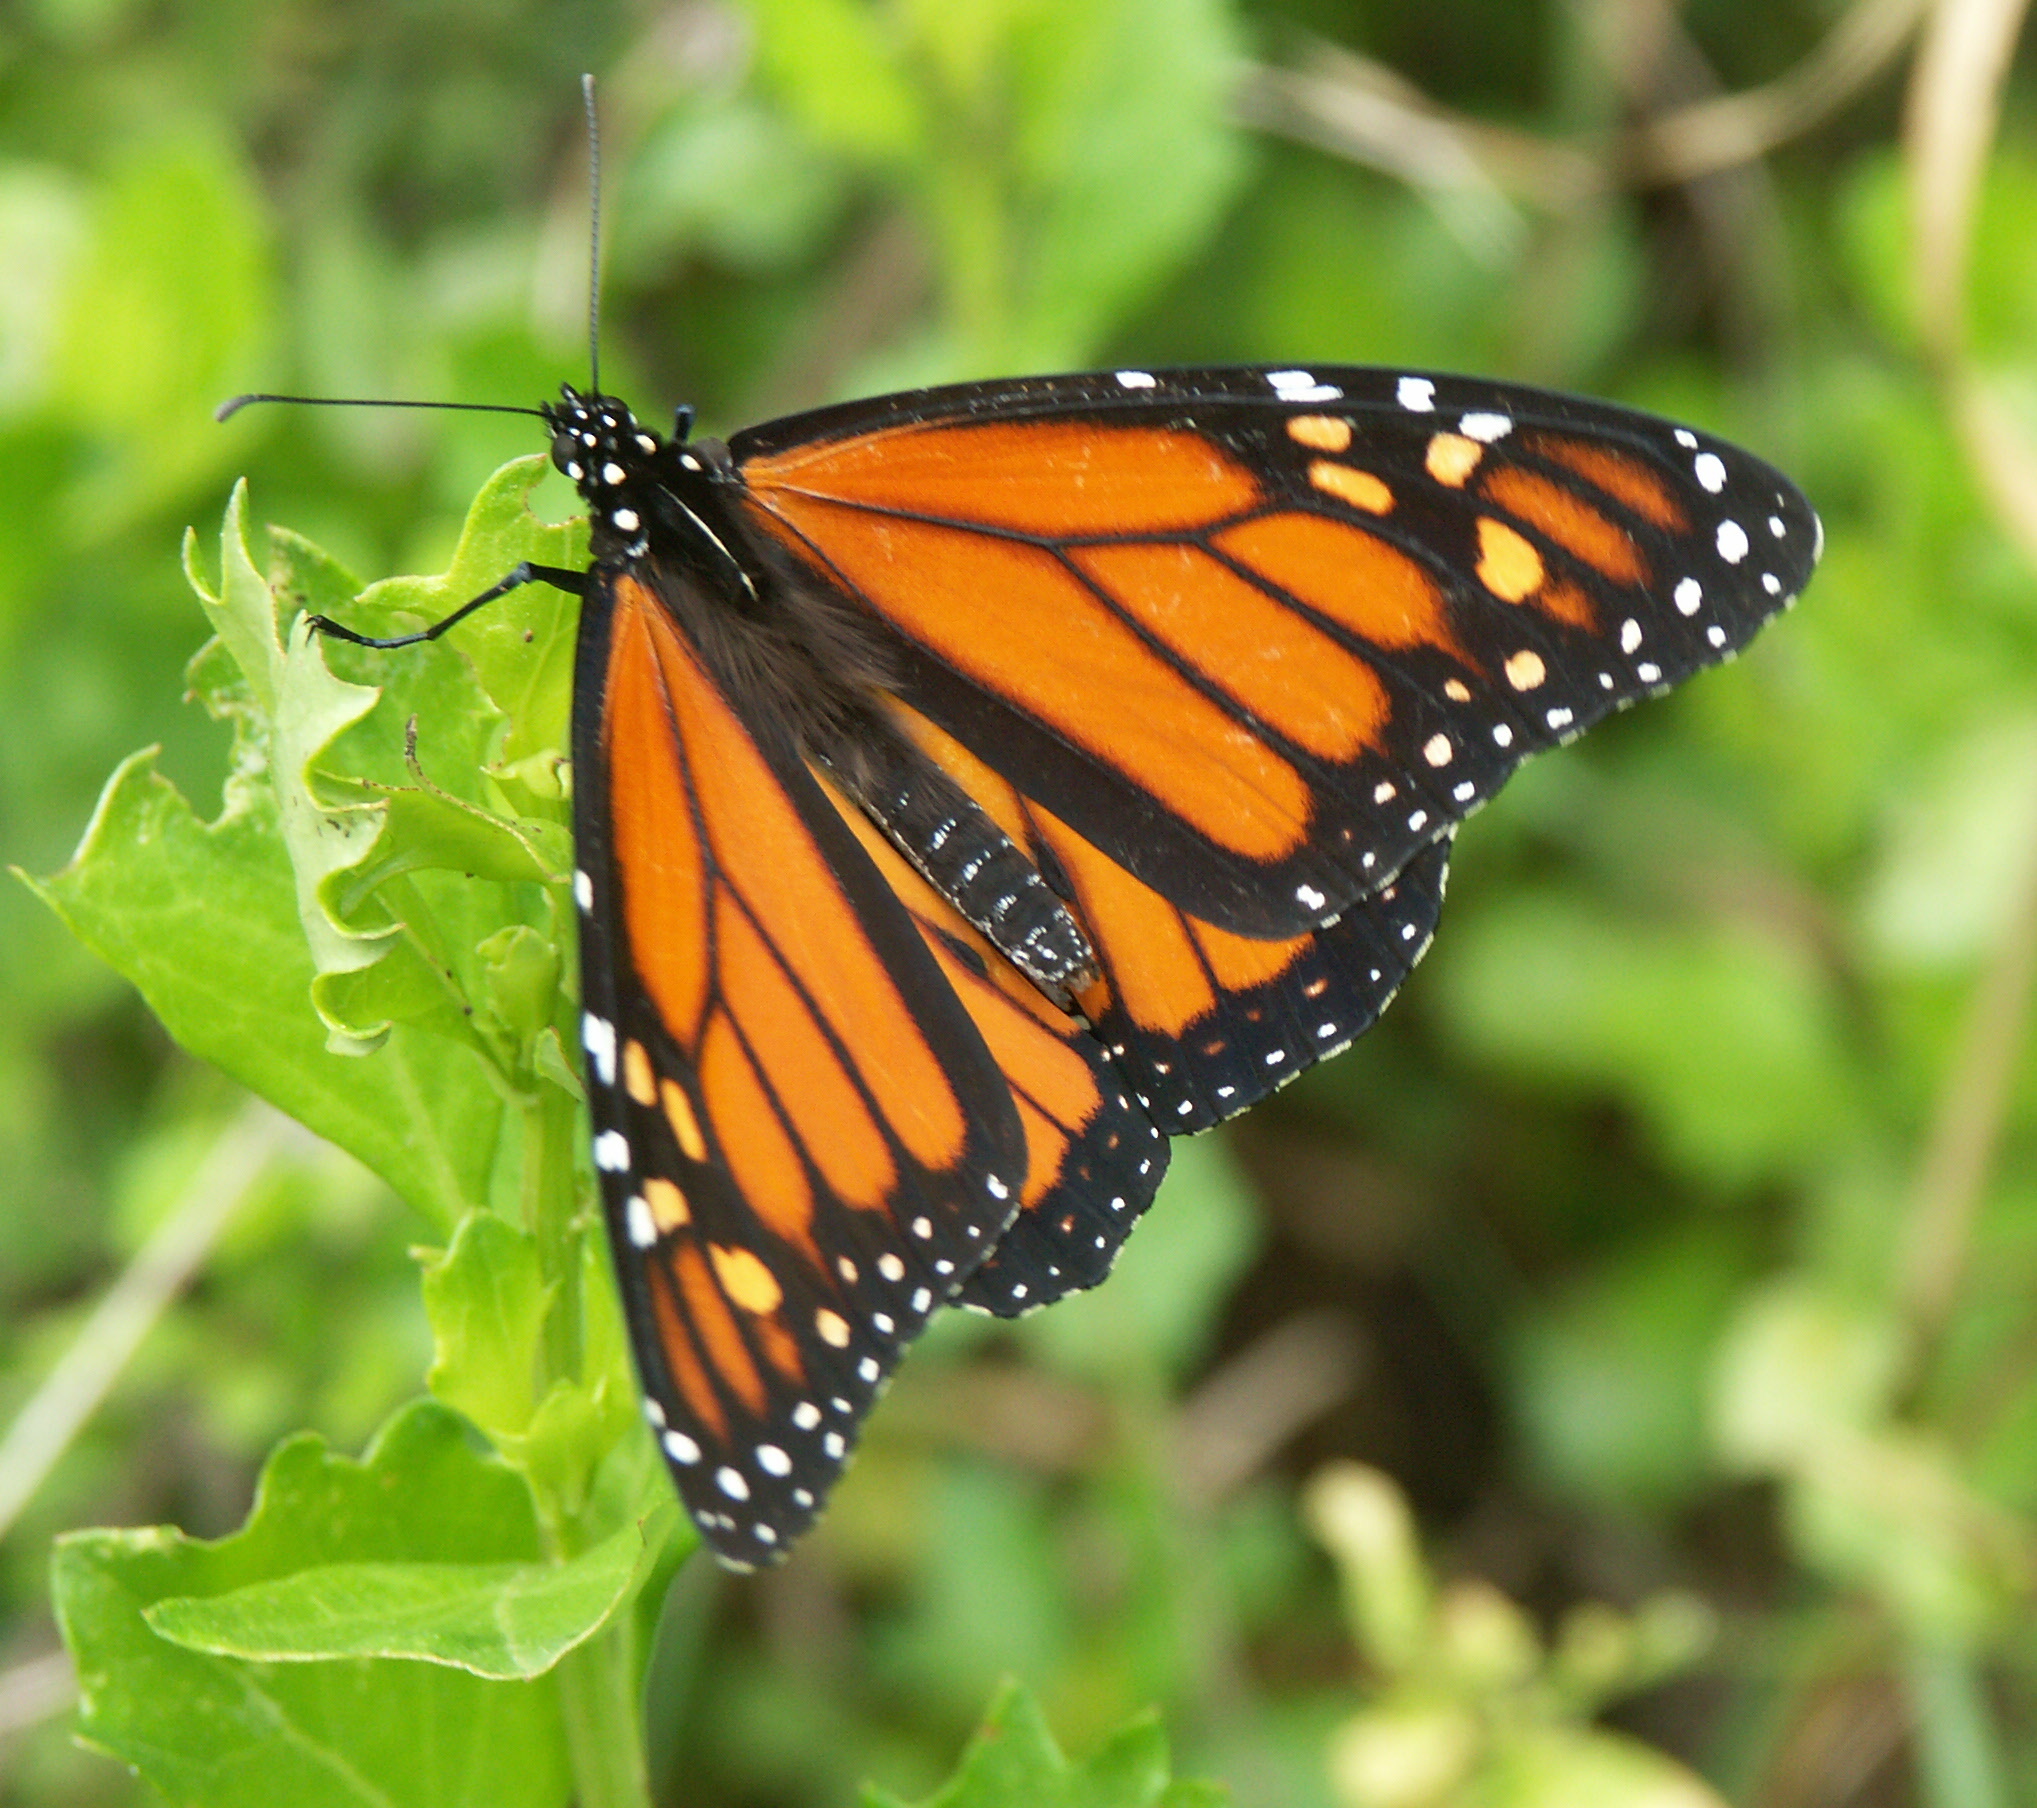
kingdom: Animalia
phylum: Arthropoda
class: Insecta
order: Lepidoptera
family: Nymphalidae
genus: Danaus
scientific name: Danaus plexippus
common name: Monarch
